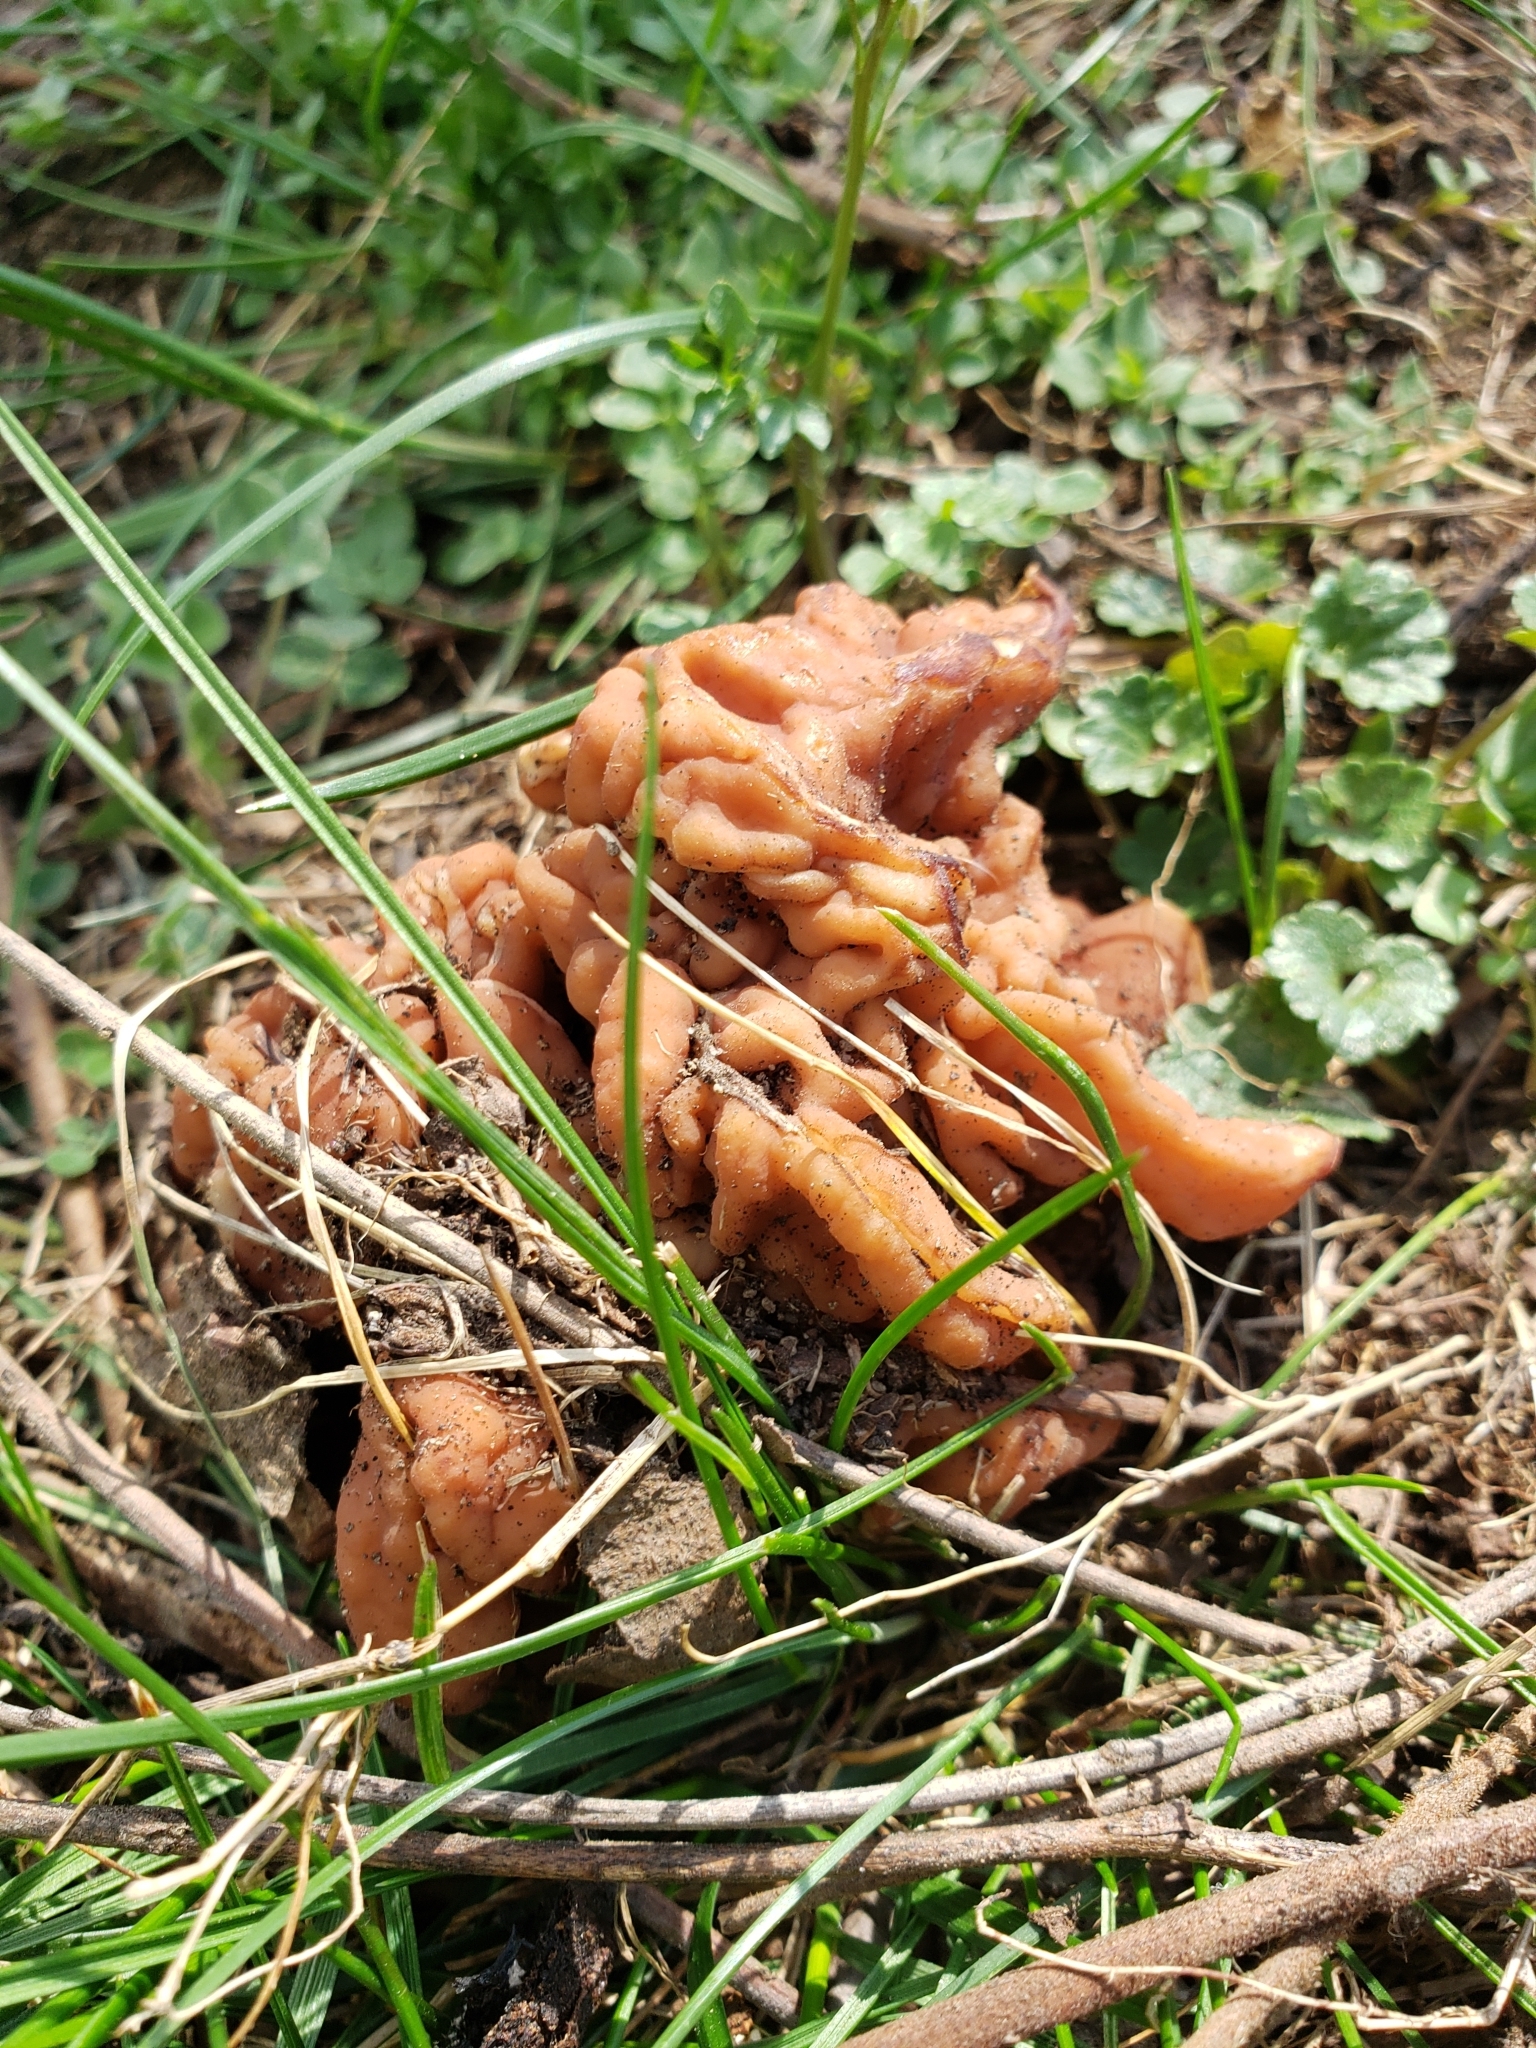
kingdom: Fungi
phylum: Ascomycota
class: Pezizomycetes
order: Pezizales
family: Discinaceae
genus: Discina
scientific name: Discina brunnea
